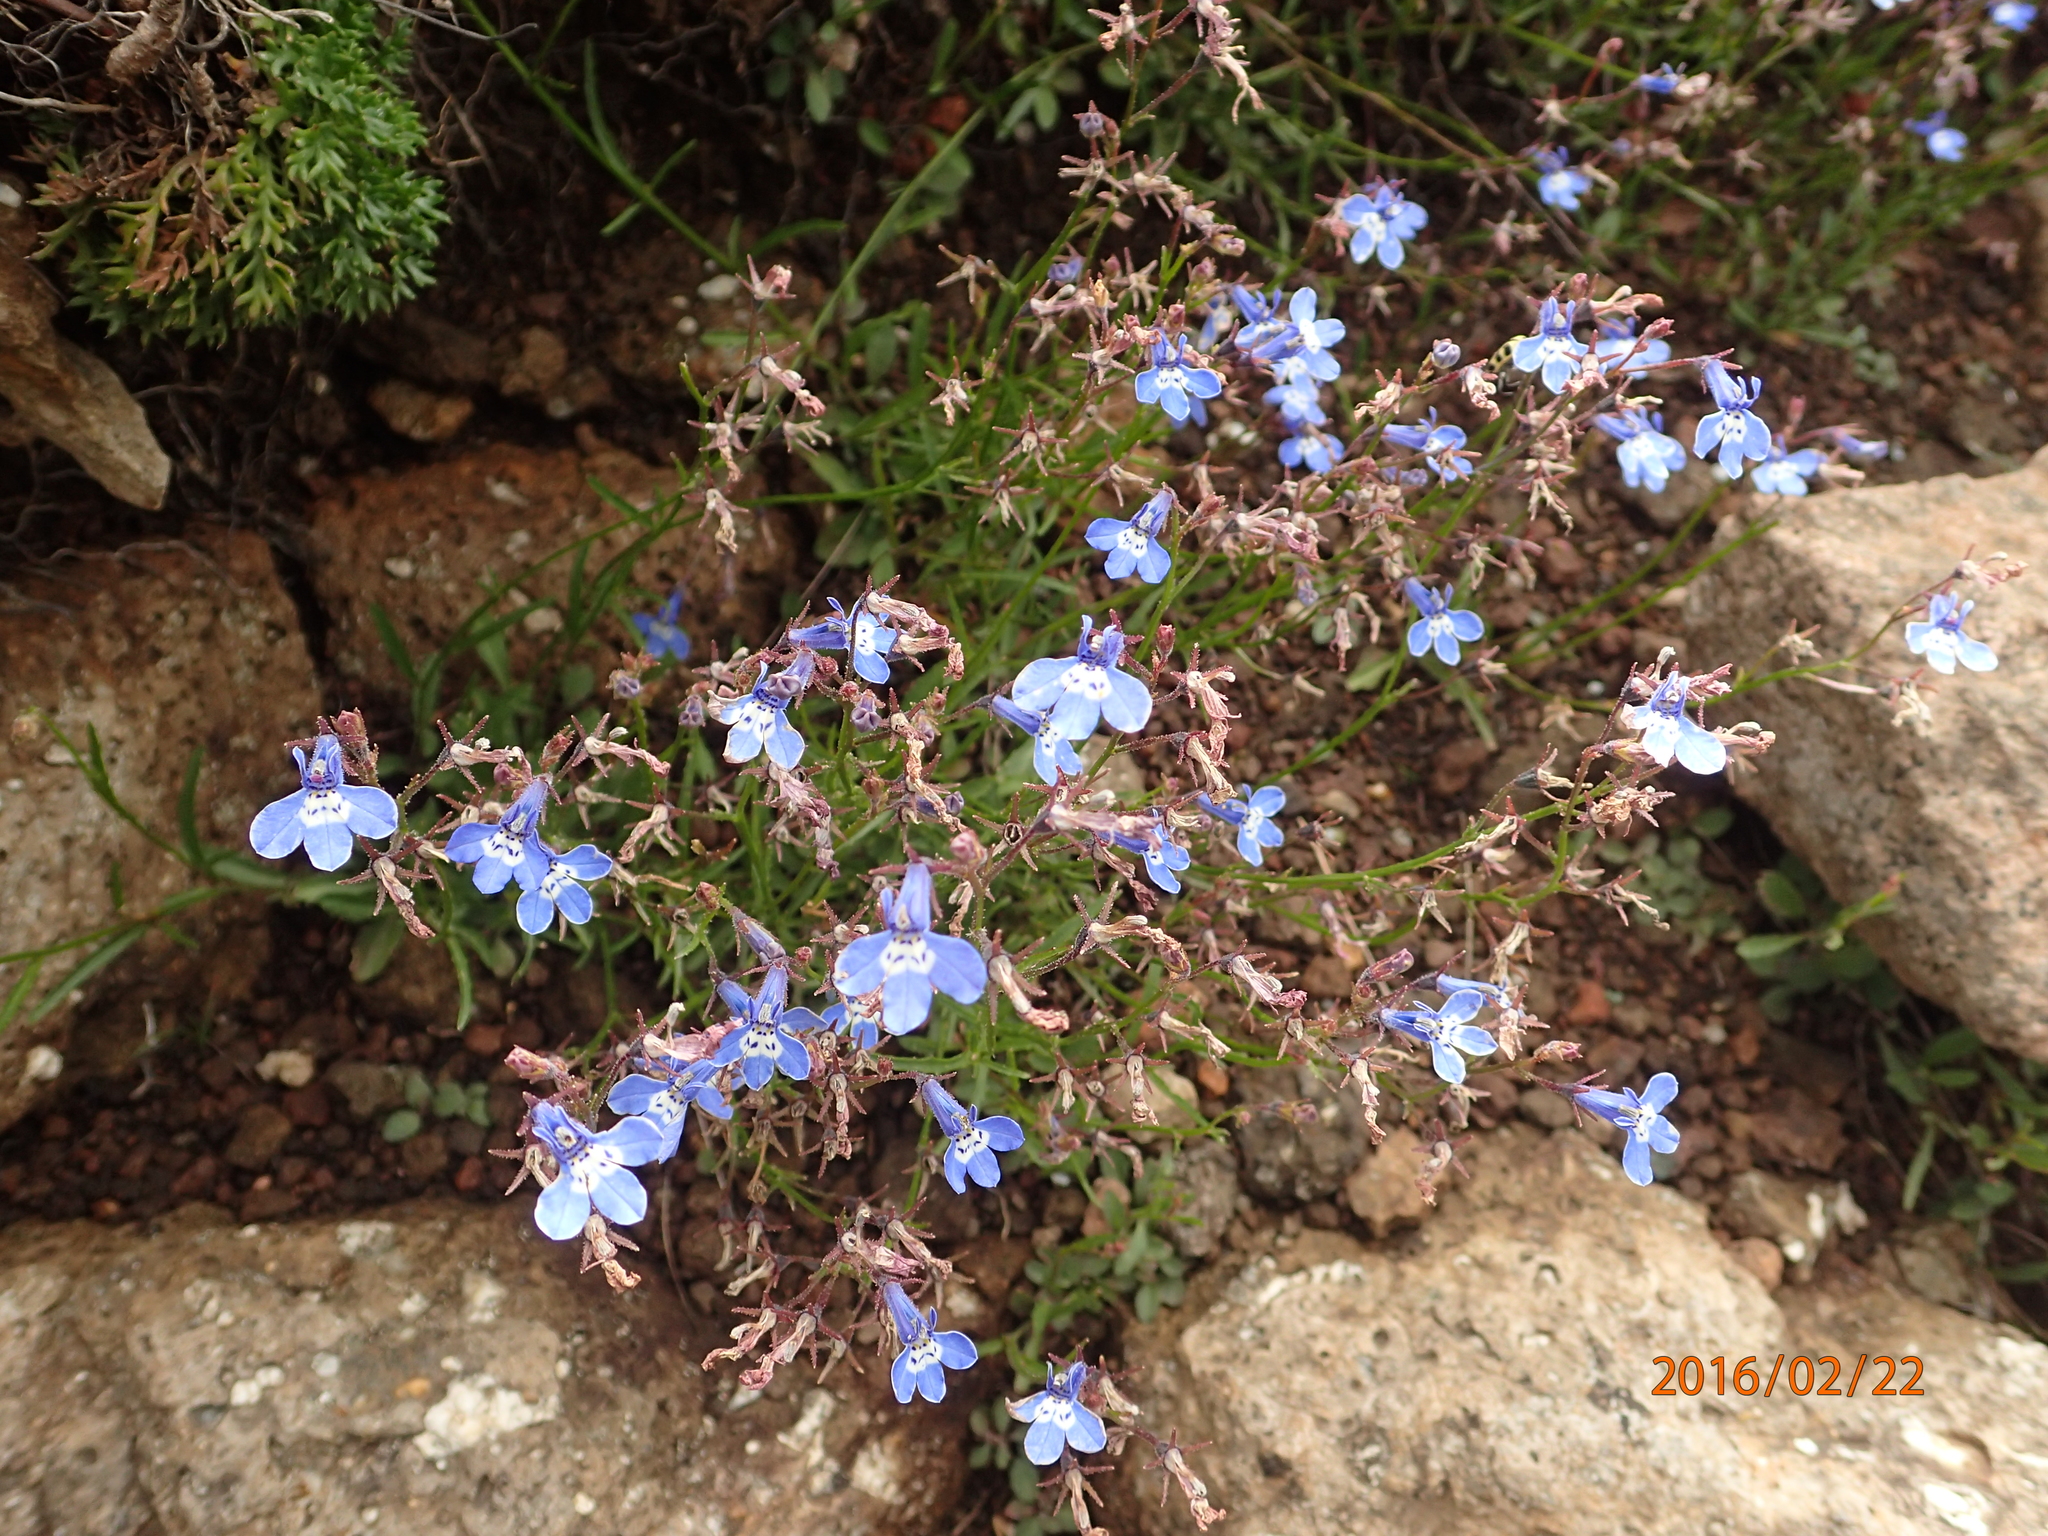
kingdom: Plantae
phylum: Tracheophyta
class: Magnoliopsida
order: Asterales
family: Campanulaceae
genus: Lobelia
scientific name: Lobelia flaccida
